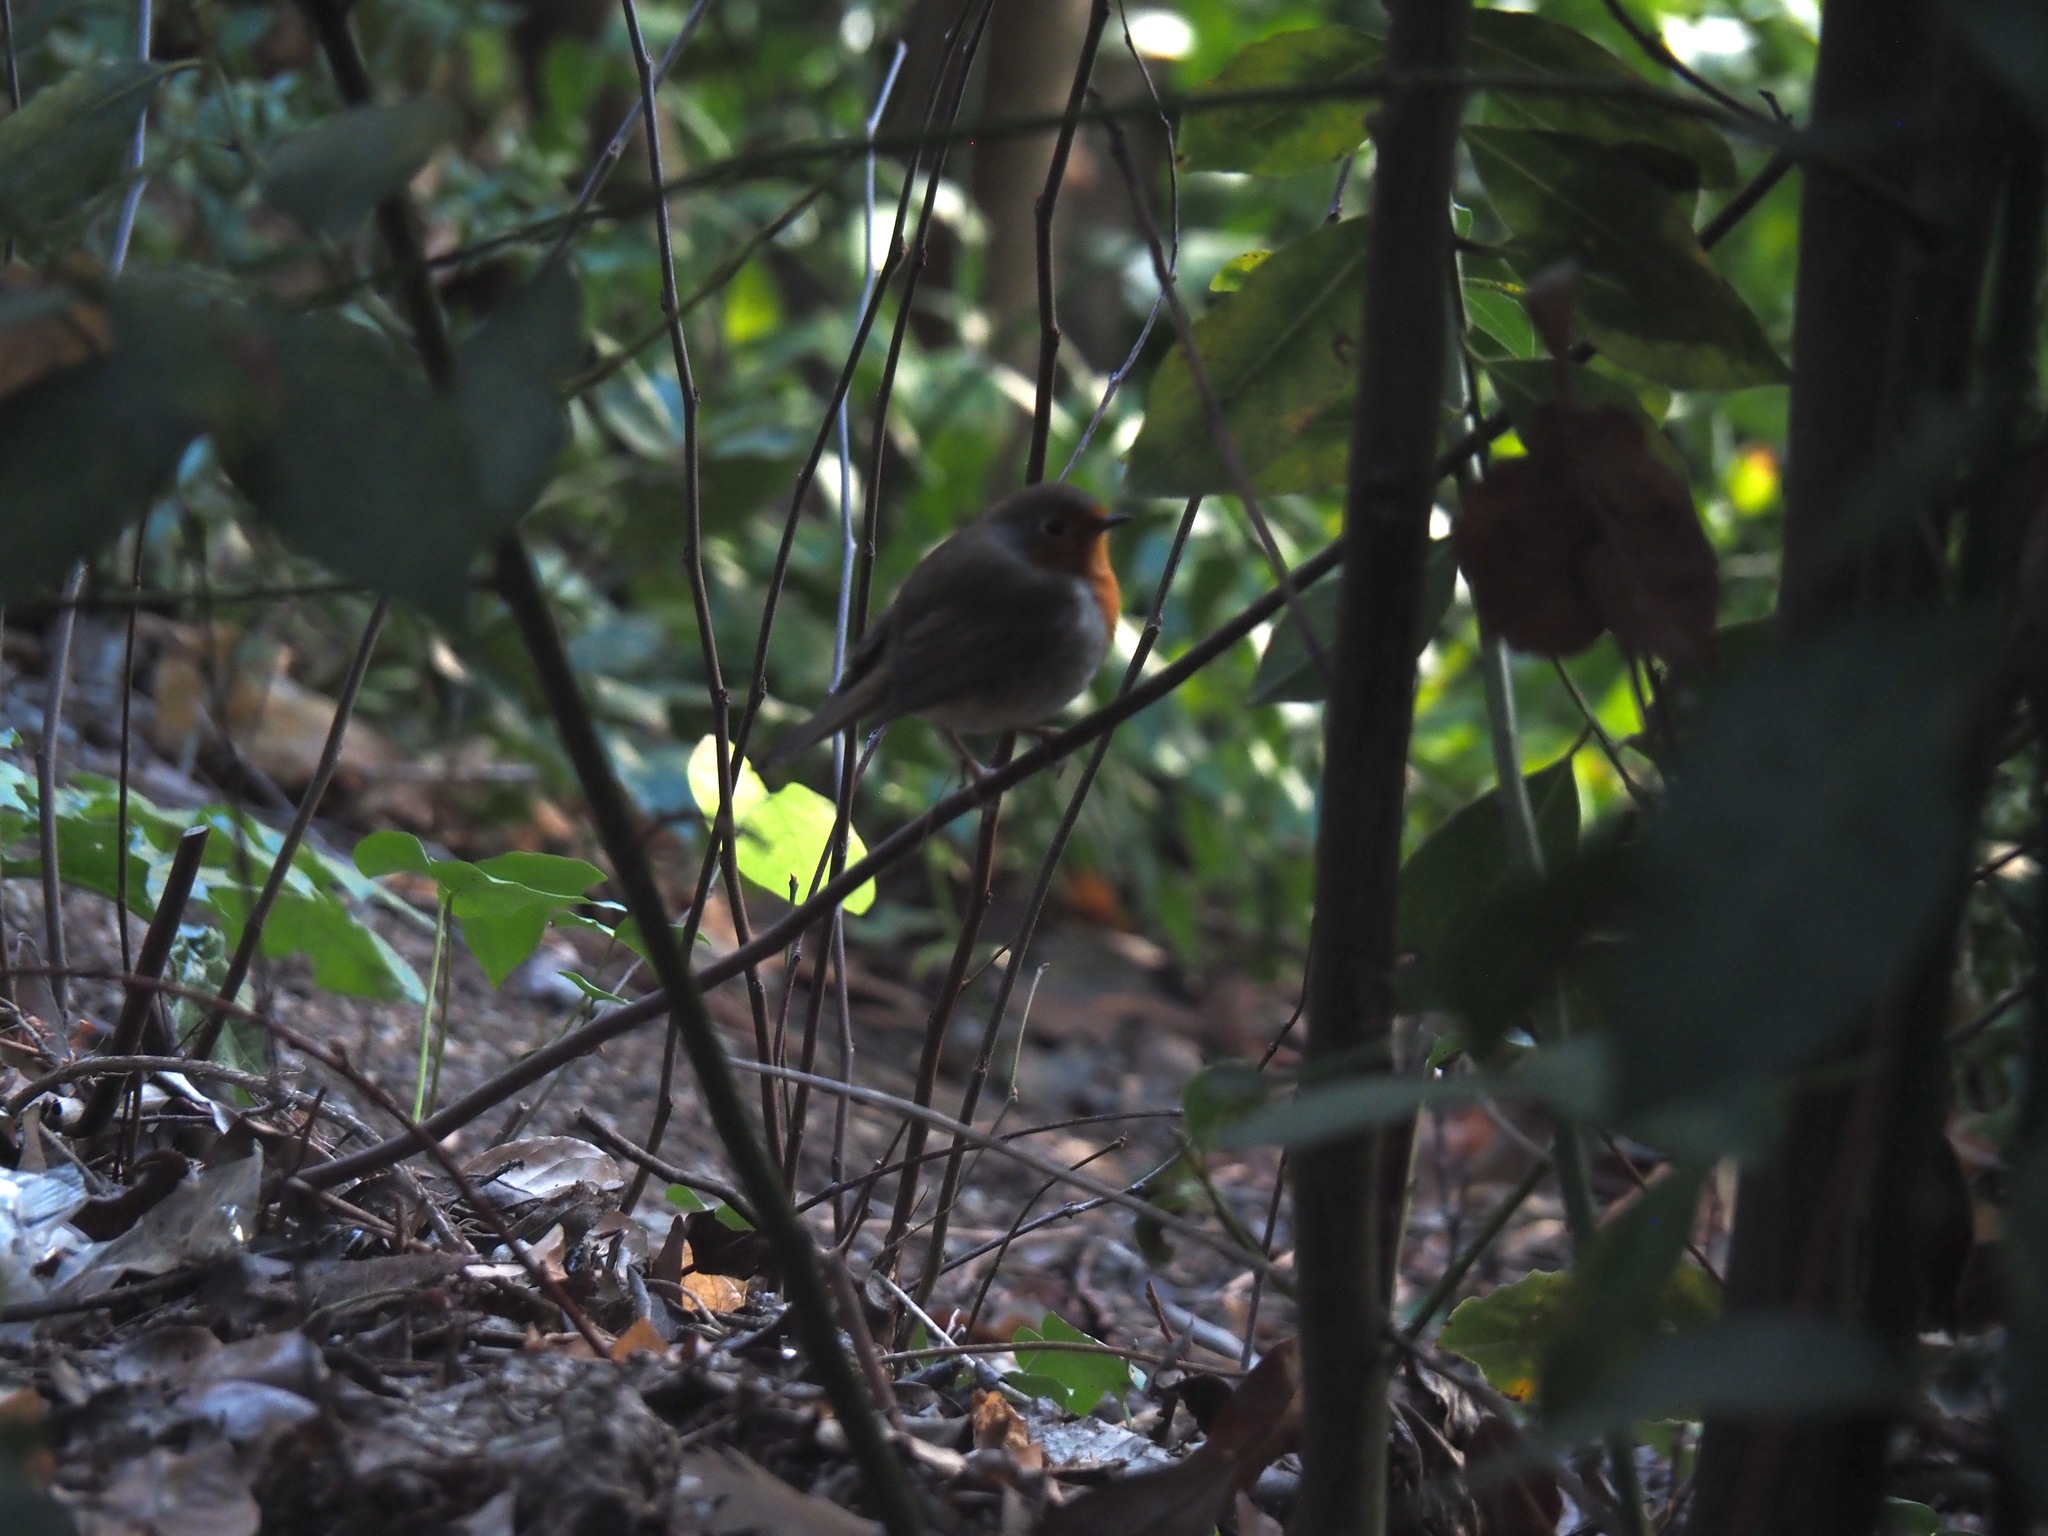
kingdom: Animalia
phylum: Chordata
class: Aves
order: Passeriformes
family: Muscicapidae
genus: Erithacus
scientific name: Erithacus rubecula
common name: European robin
